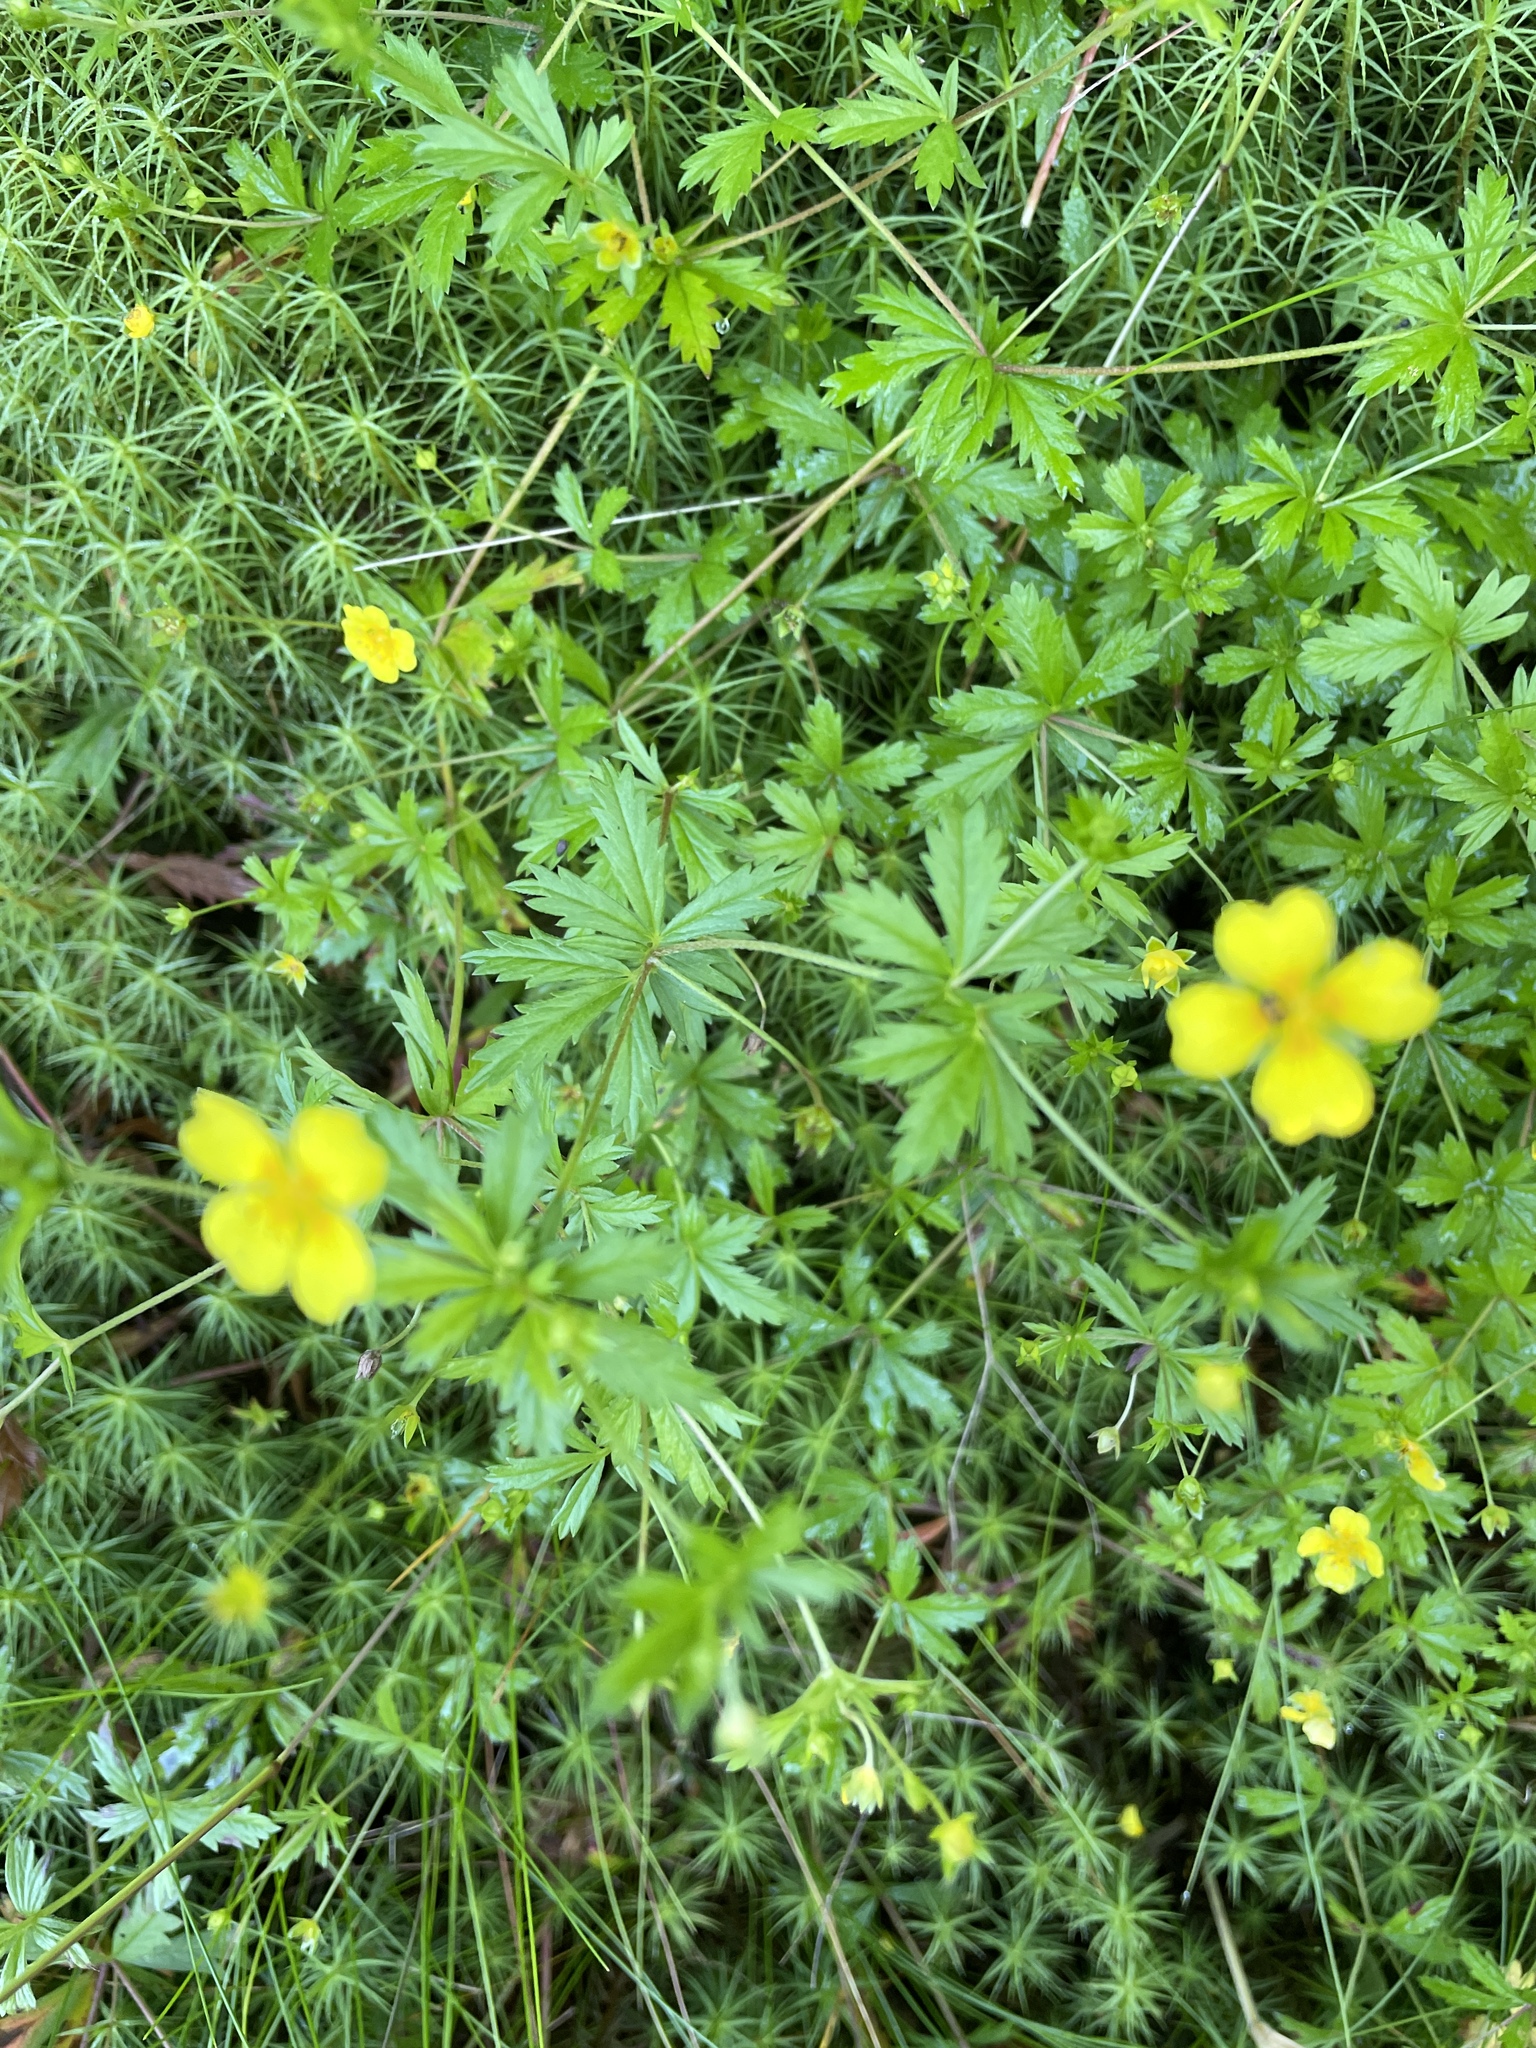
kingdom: Plantae
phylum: Tracheophyta
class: Magnoliopsida
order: Rosales
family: Rosaceae
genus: Potentilla
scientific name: Potentilla erecta
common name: Tormentil
